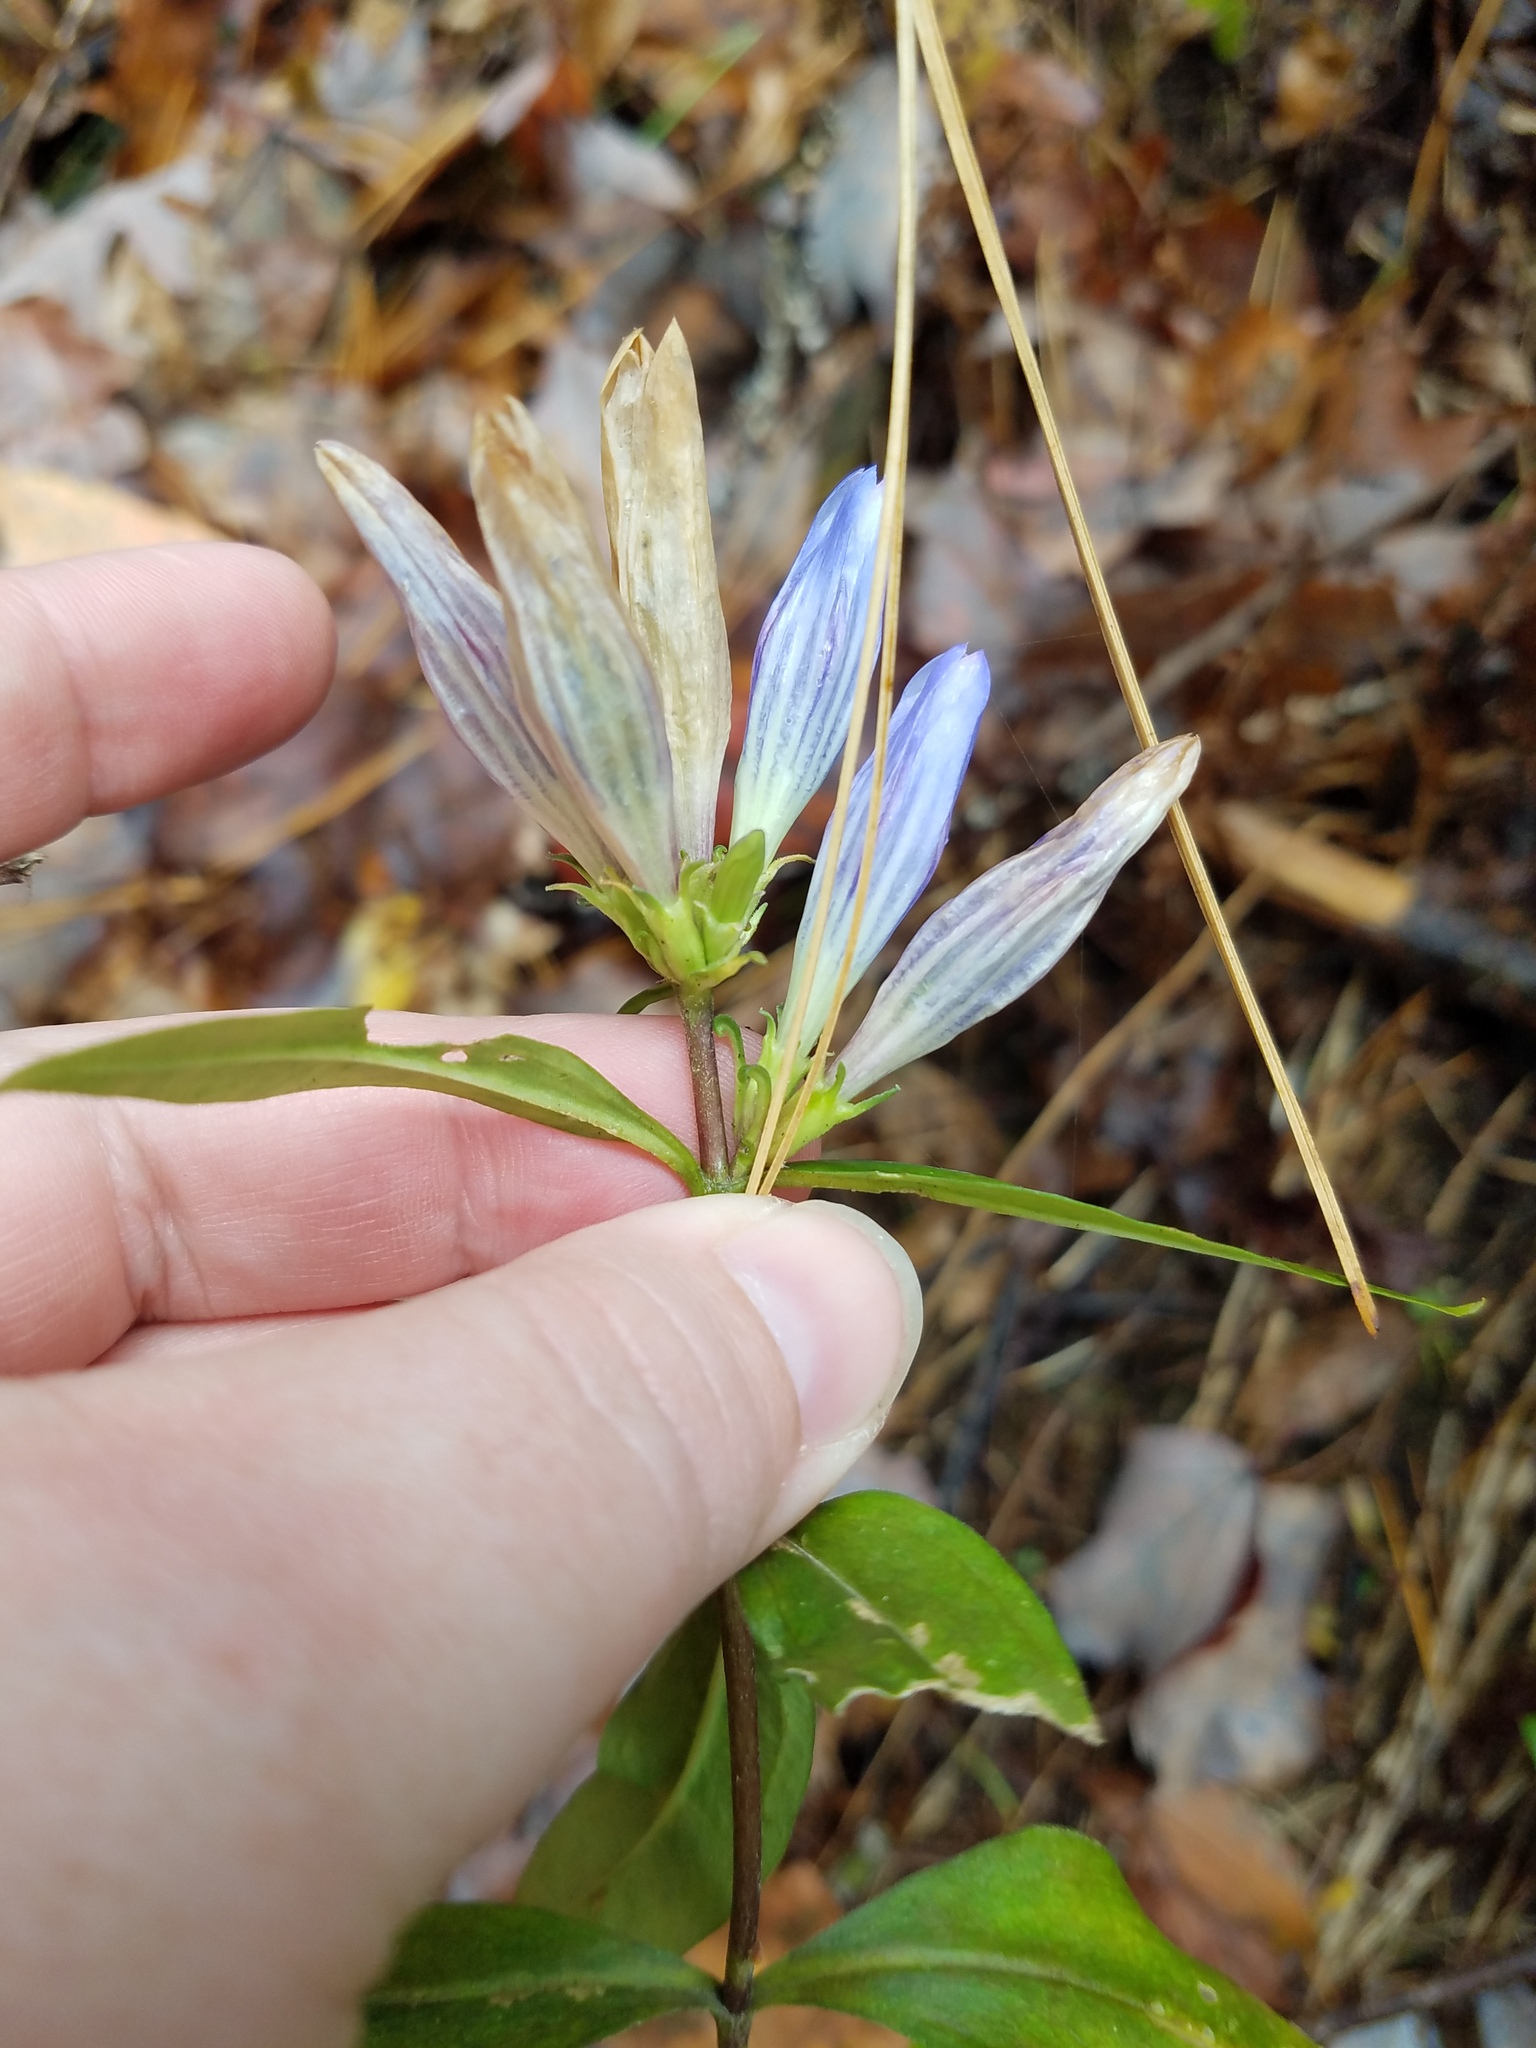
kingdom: Plantae
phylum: Tracheophyta
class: Magnoliopsida
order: Gentianales
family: Gentianaceae
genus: Gentiana
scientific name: Gentiana decora
